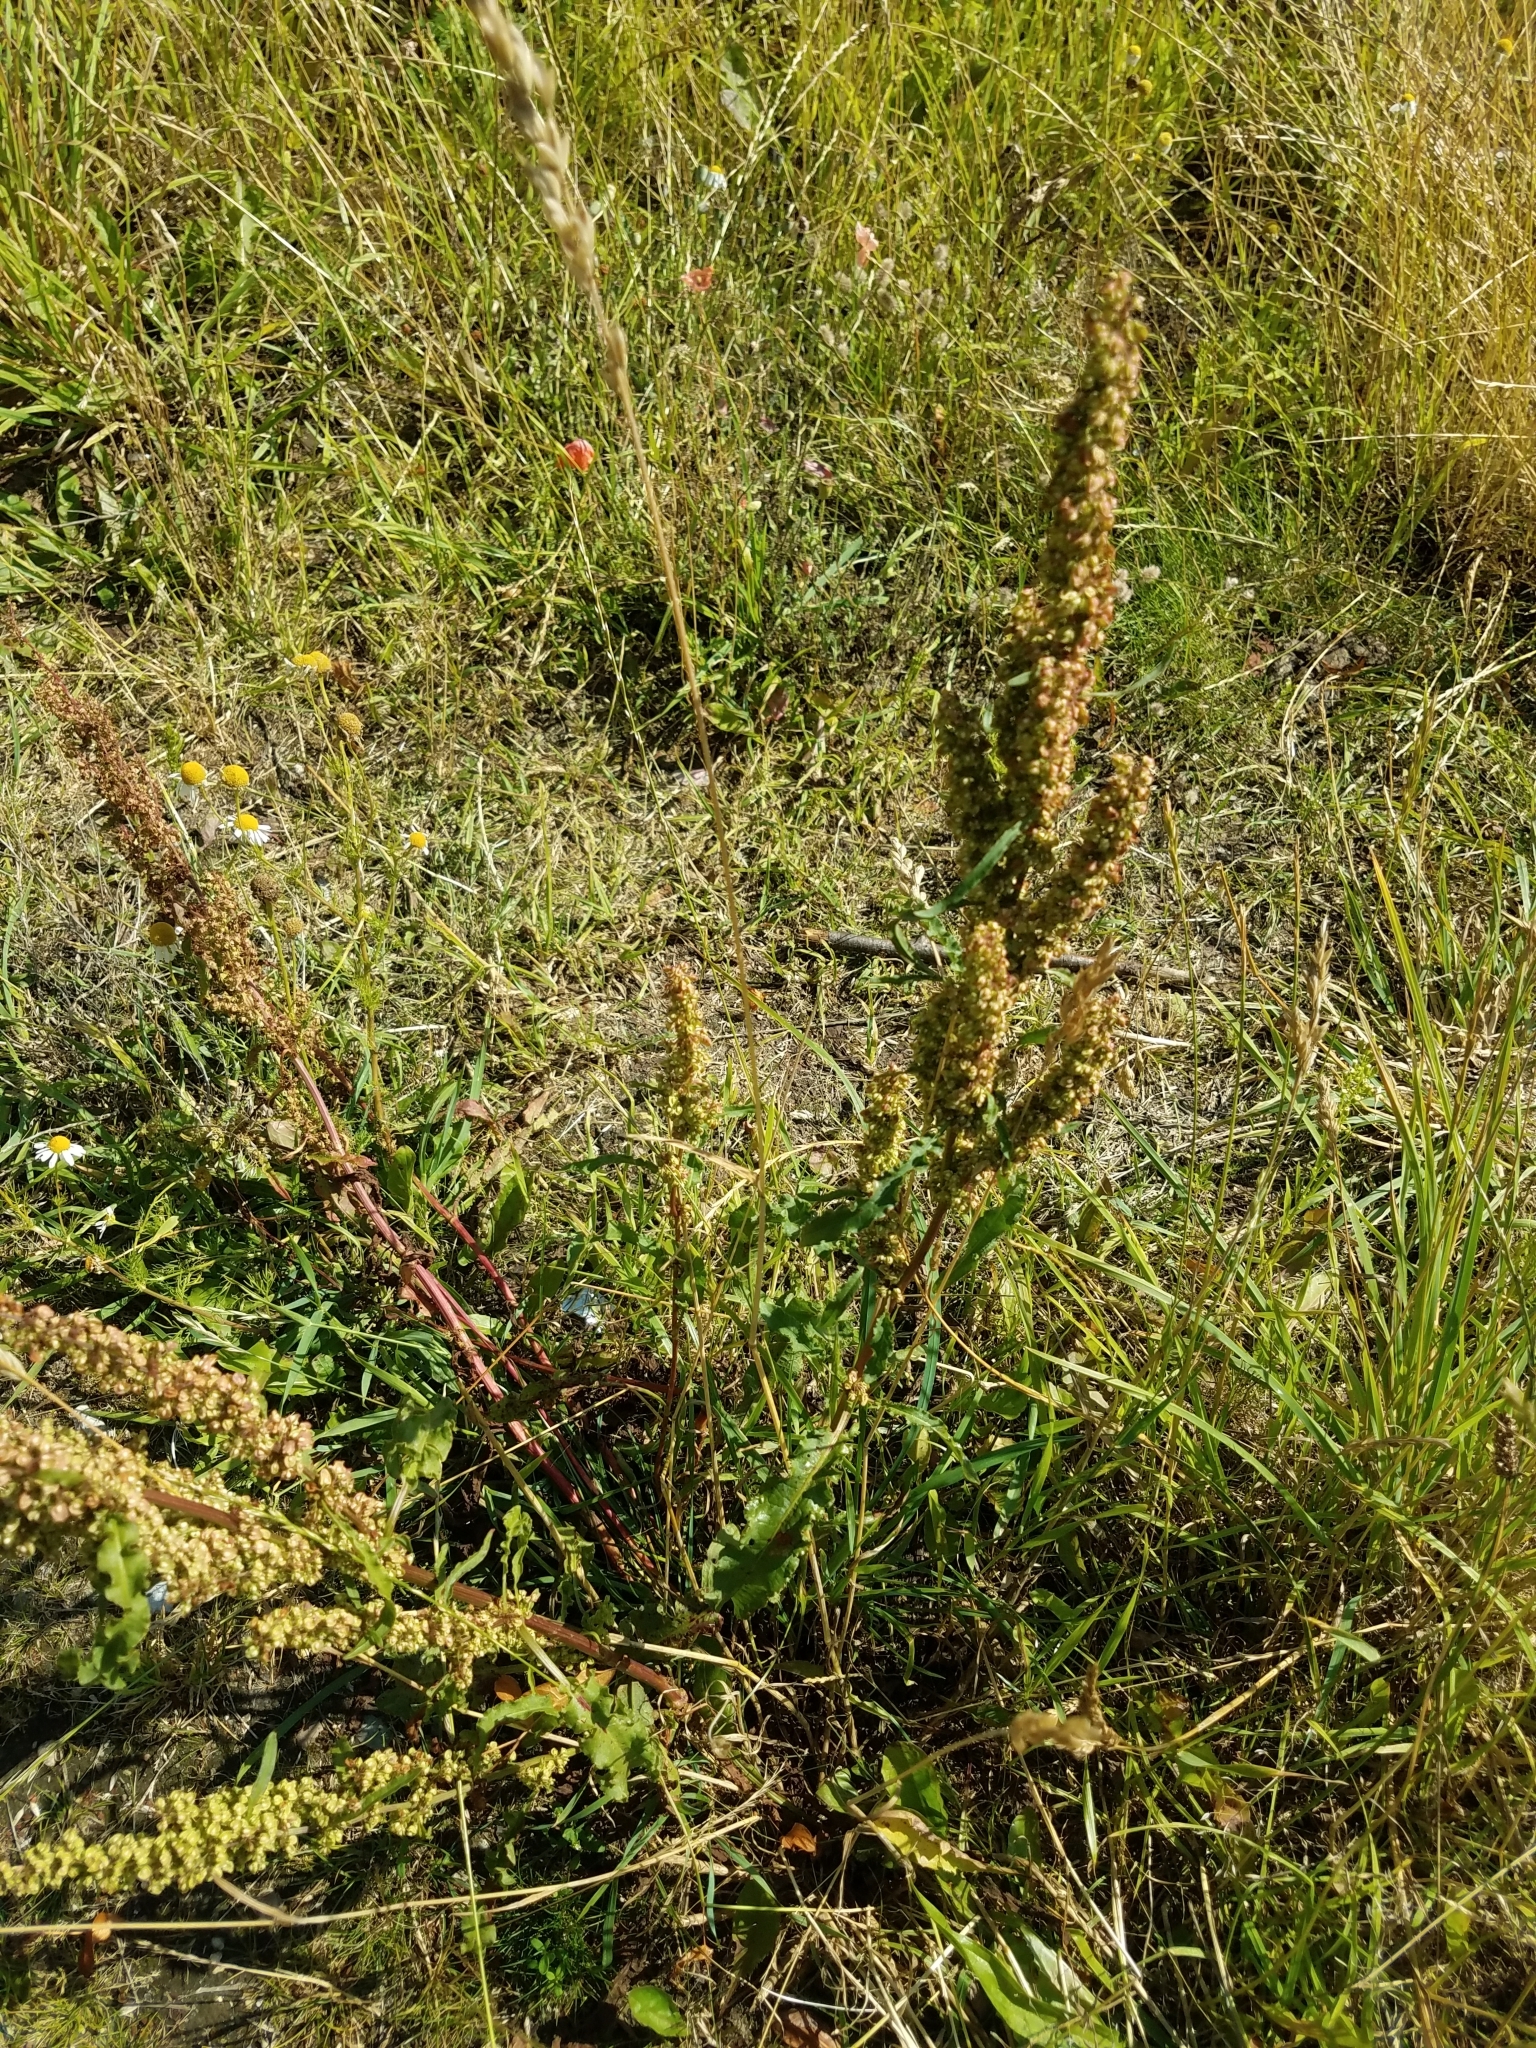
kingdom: Plantae
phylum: Tracheophyta
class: Magnoliopsida
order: Caryophyllales
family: Polygonaceae
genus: Rumex
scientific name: Rumex crispus
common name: Curled dock
